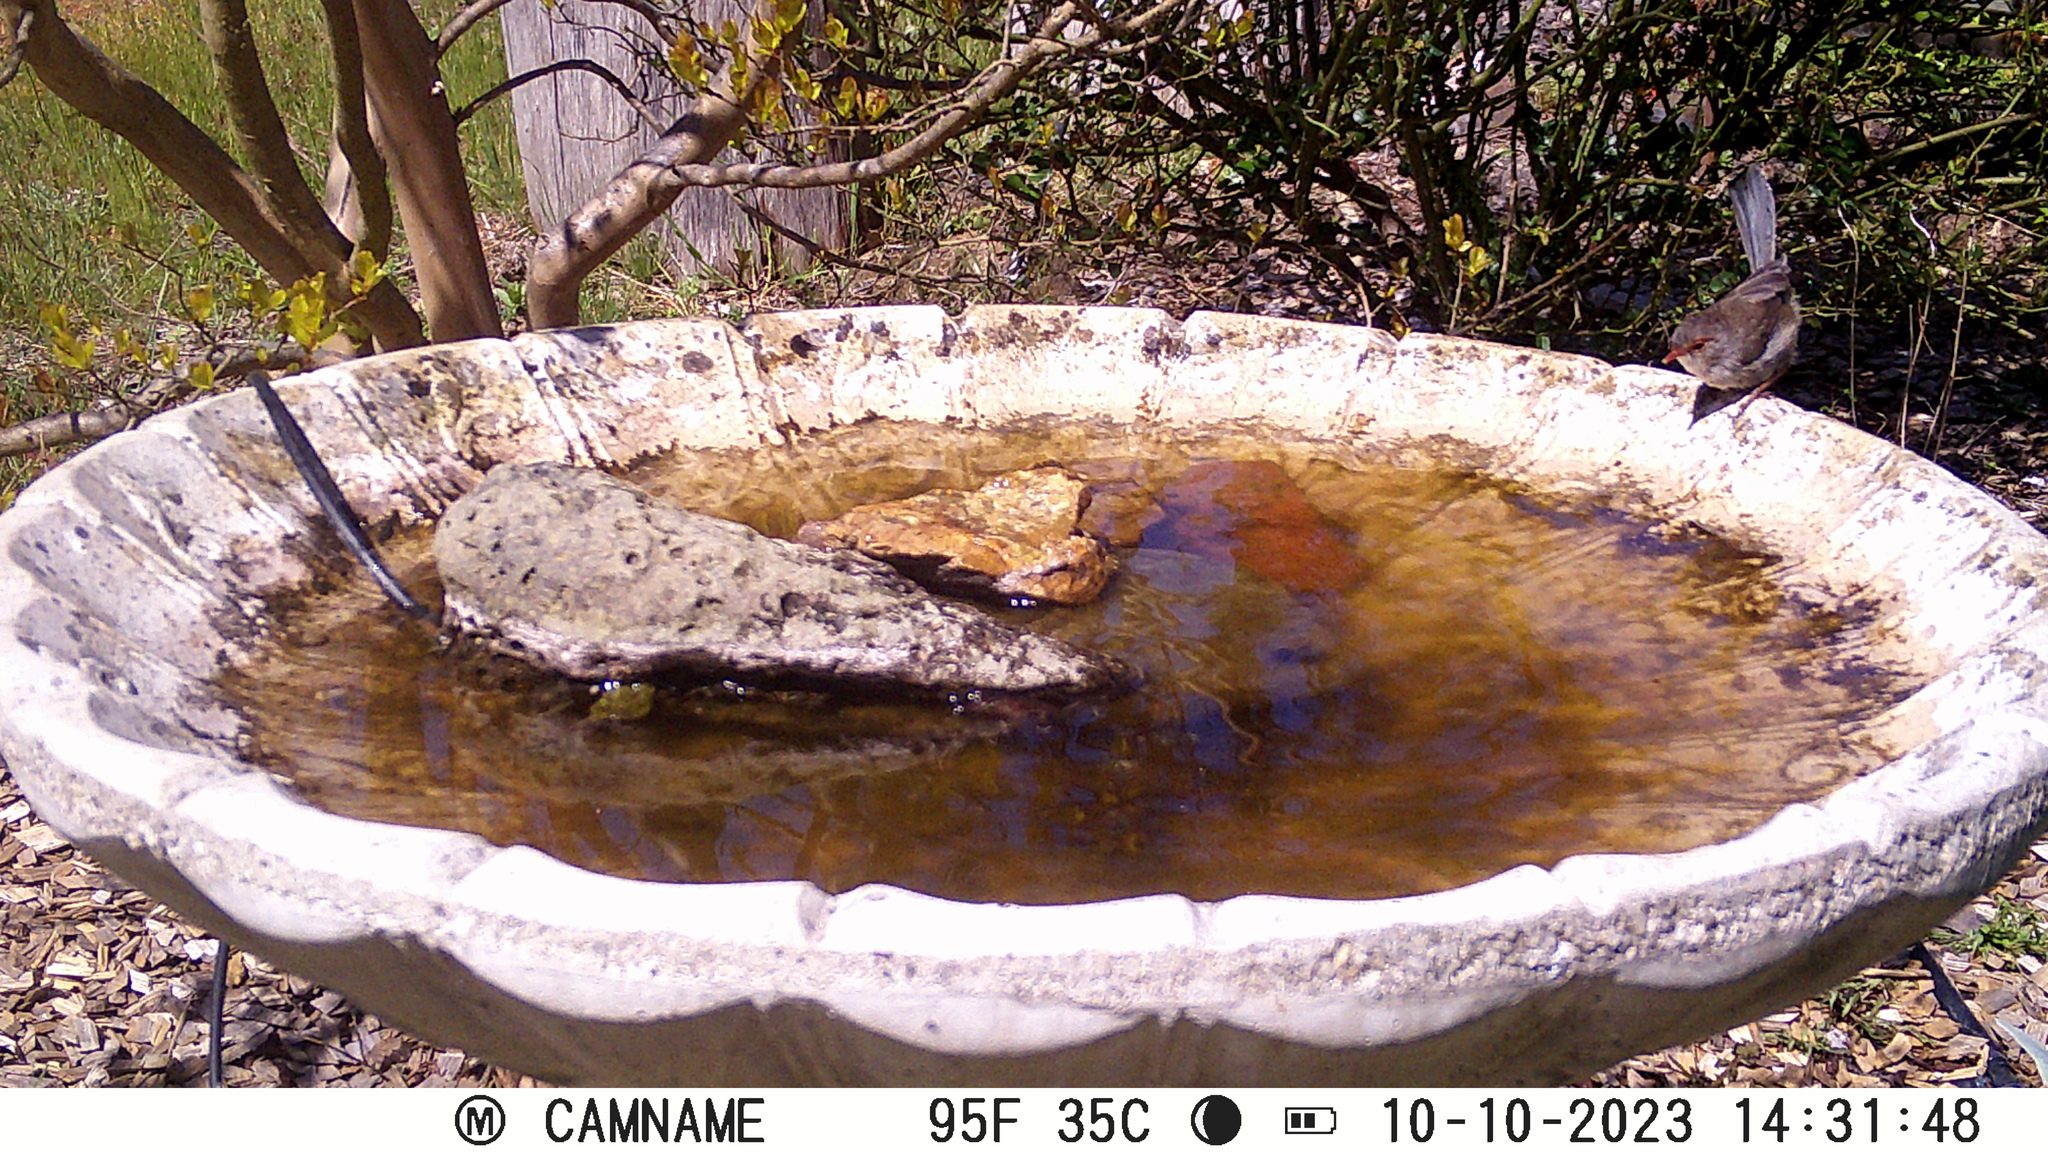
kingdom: Animalia
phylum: Chordata
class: Aves
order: Passeriformes
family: Maluridae
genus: Malurus
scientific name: Malurus cyaneus
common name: Superb fairywren
